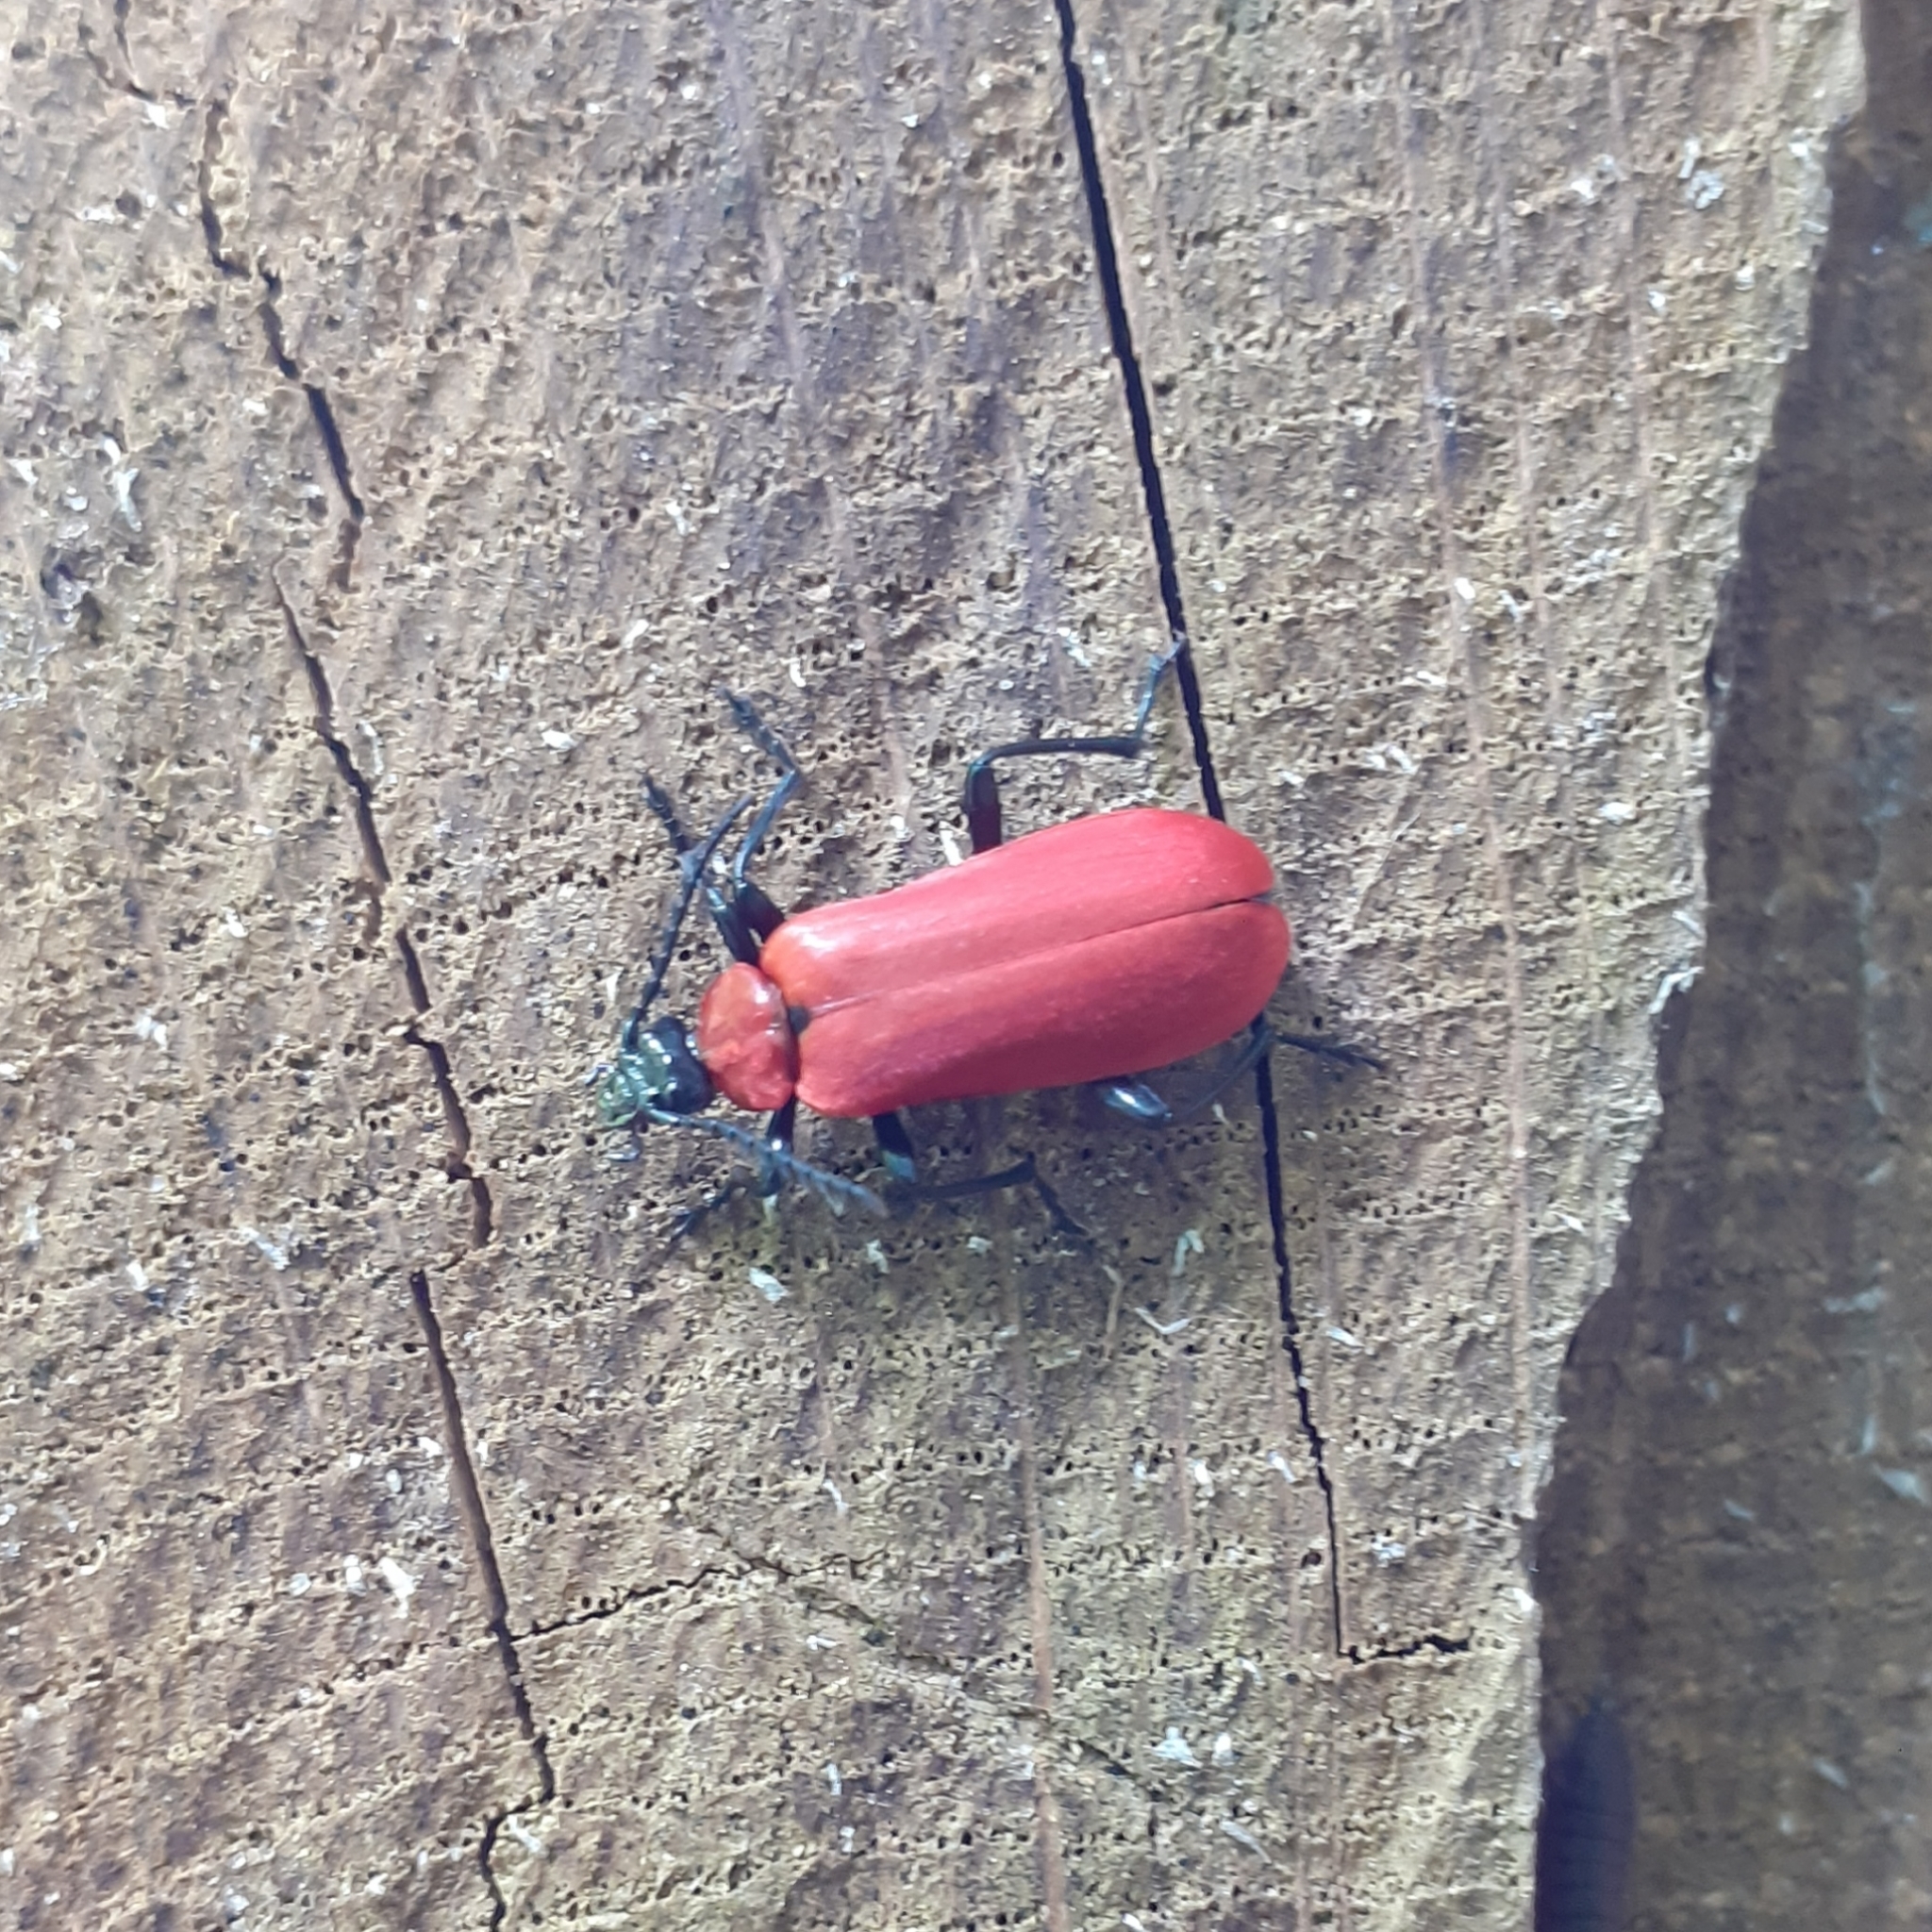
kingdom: Animalia
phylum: Arthropoda
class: Insecta
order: Coleoptera
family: Pyrochroidae
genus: Pyrochroa
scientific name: Pyrochroa coccinea
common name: Black-headed cardinal beetle
